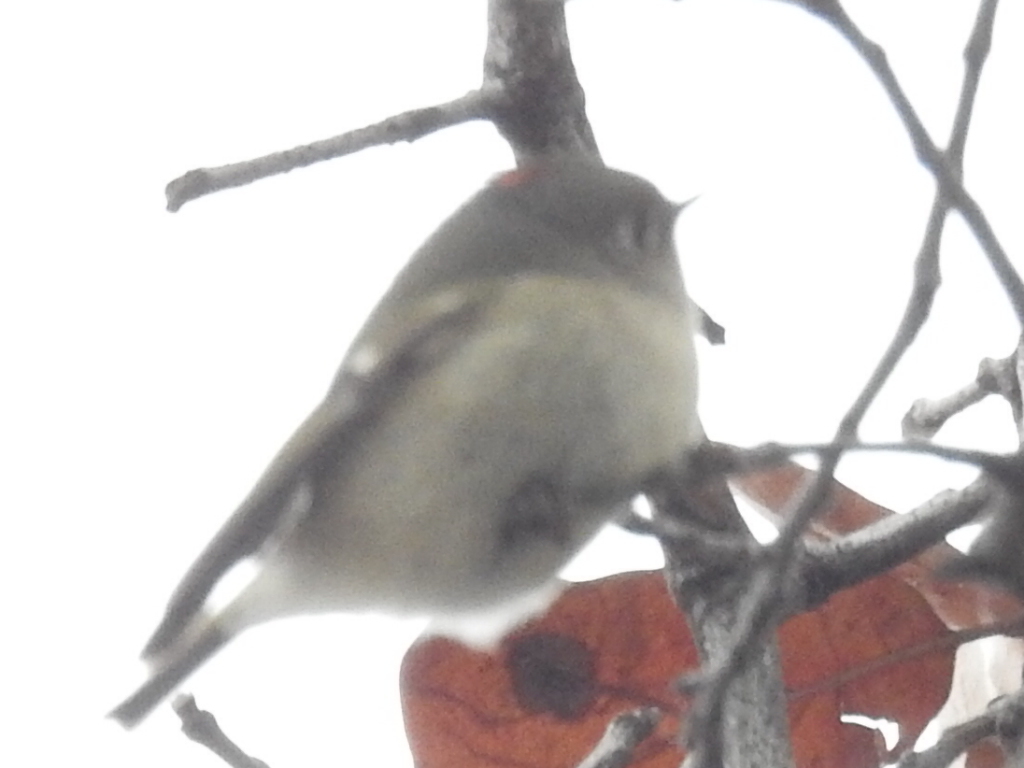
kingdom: Animalia
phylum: Chordata
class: Aves
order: Passeriformes
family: Regulidae
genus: Regulus
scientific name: Regulus calendula
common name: Ruby-crowned kinglet
